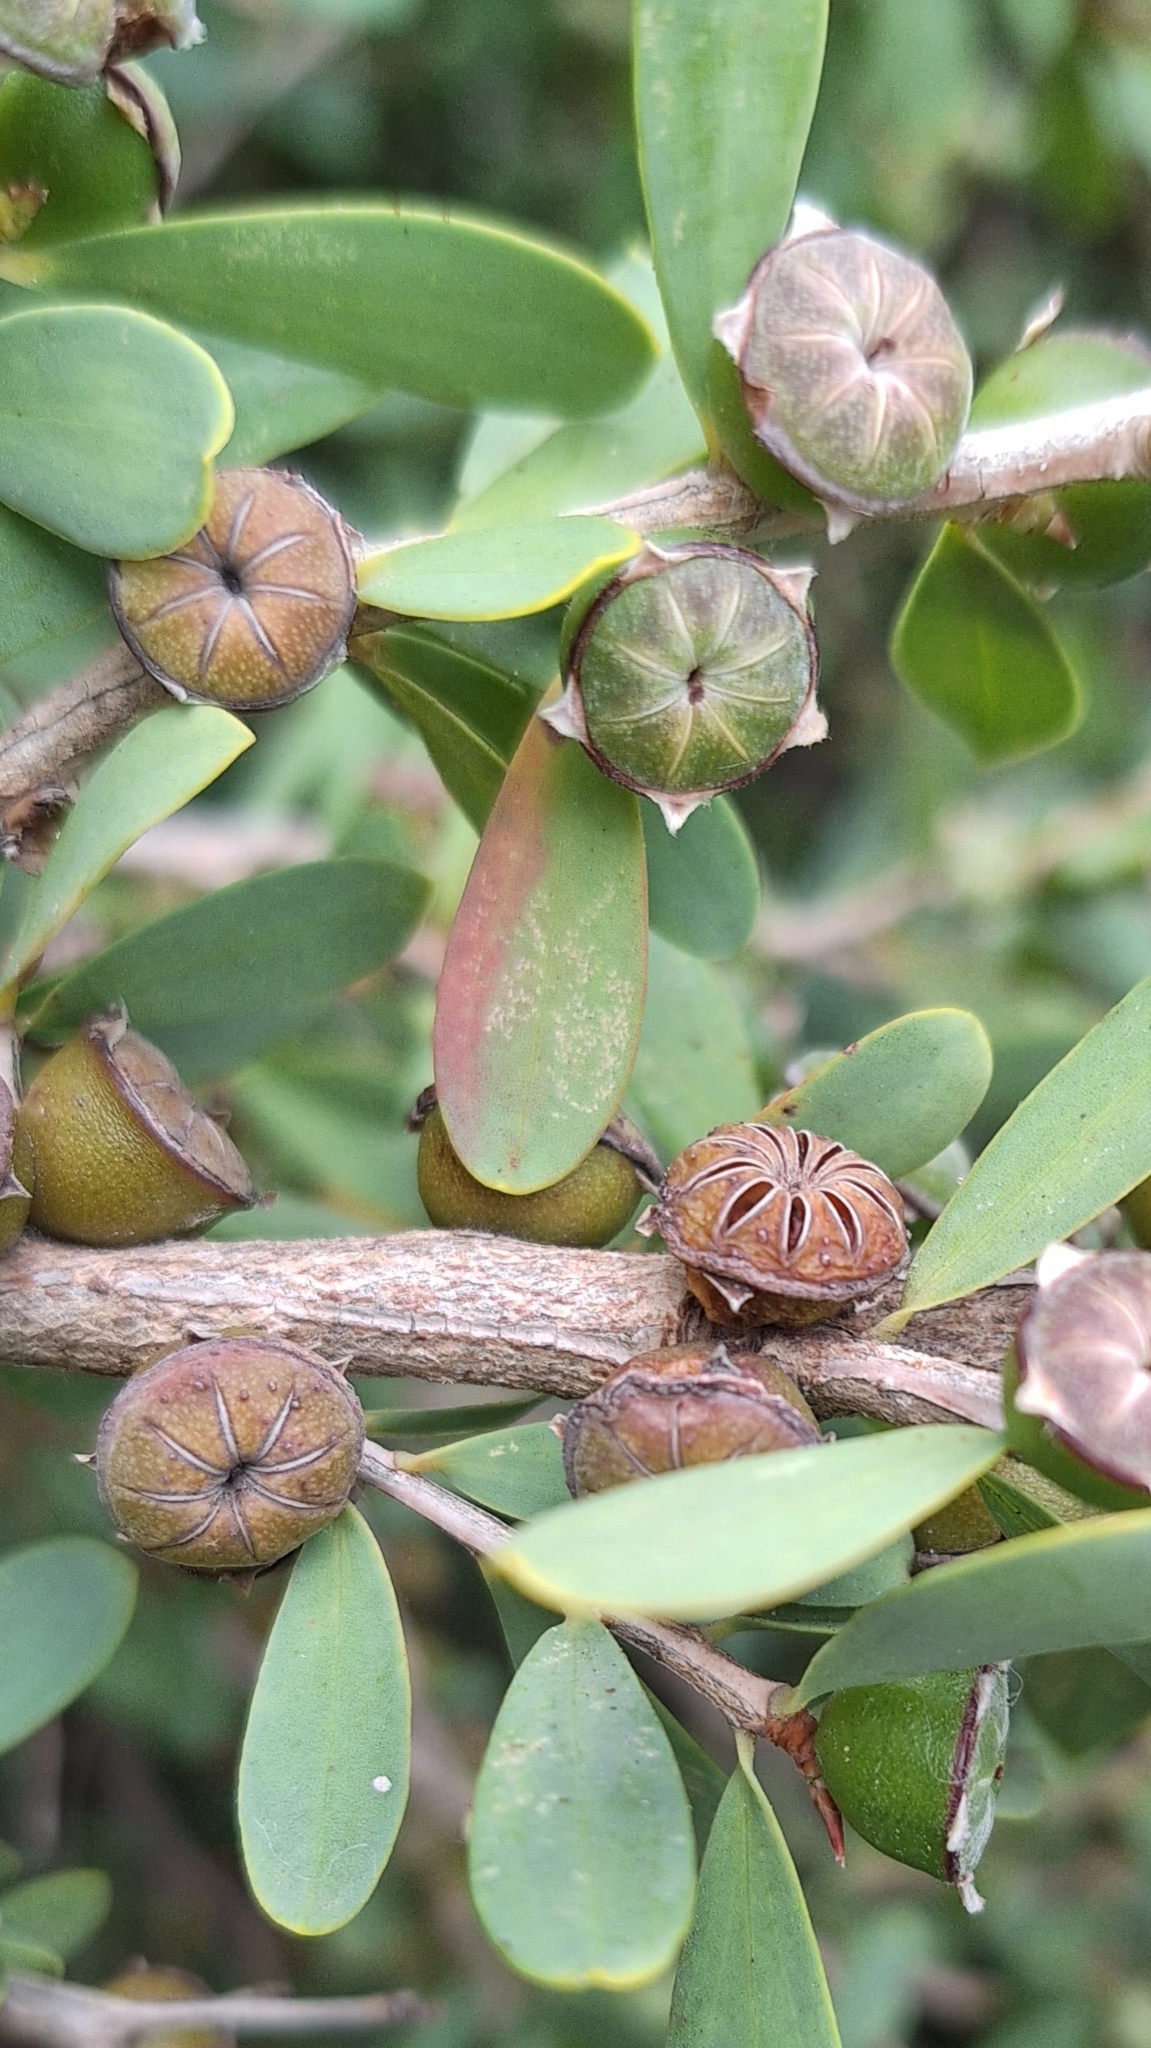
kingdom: Plantae
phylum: Tracheophyta
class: Magnoliopsida
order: Myrtales
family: Myrtaceae
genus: Leptospermum
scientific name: Leptospermum laevigatum
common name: Australian teatree
